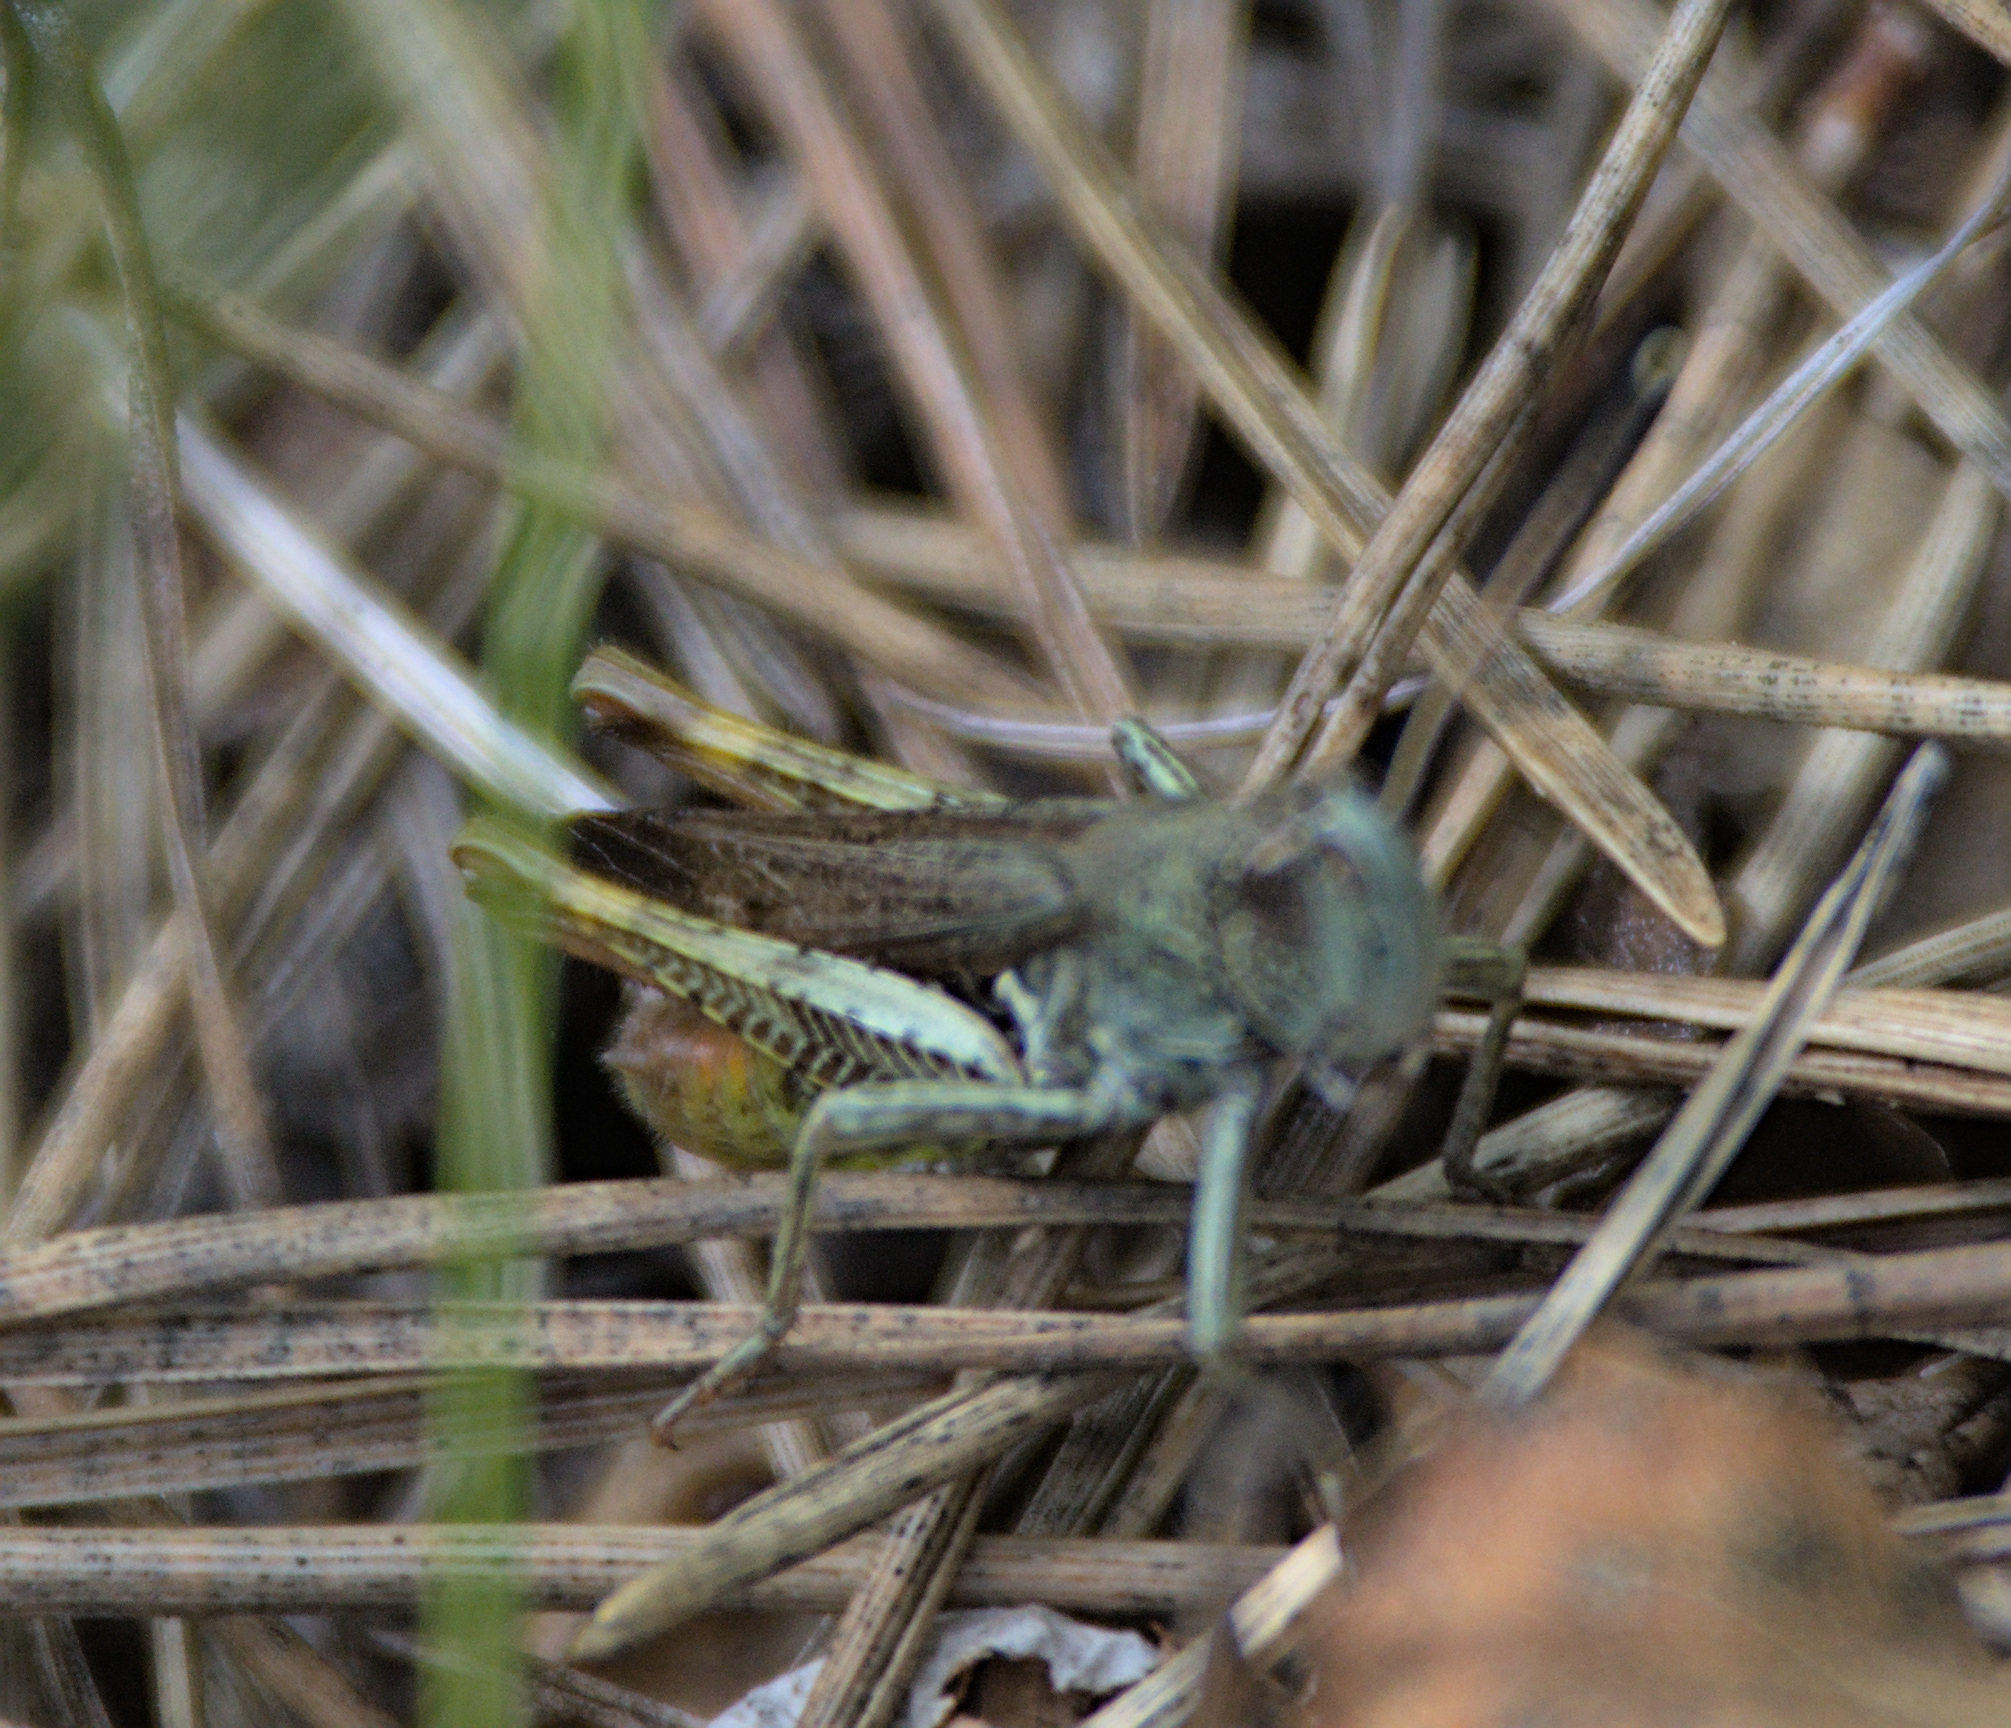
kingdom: Animalia
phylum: Arthropoda
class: Insecta
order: Orthoptera
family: Acrididae
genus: Gomphocerippus
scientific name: Gomphocerippus rufus
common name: Rufous grasshopper
